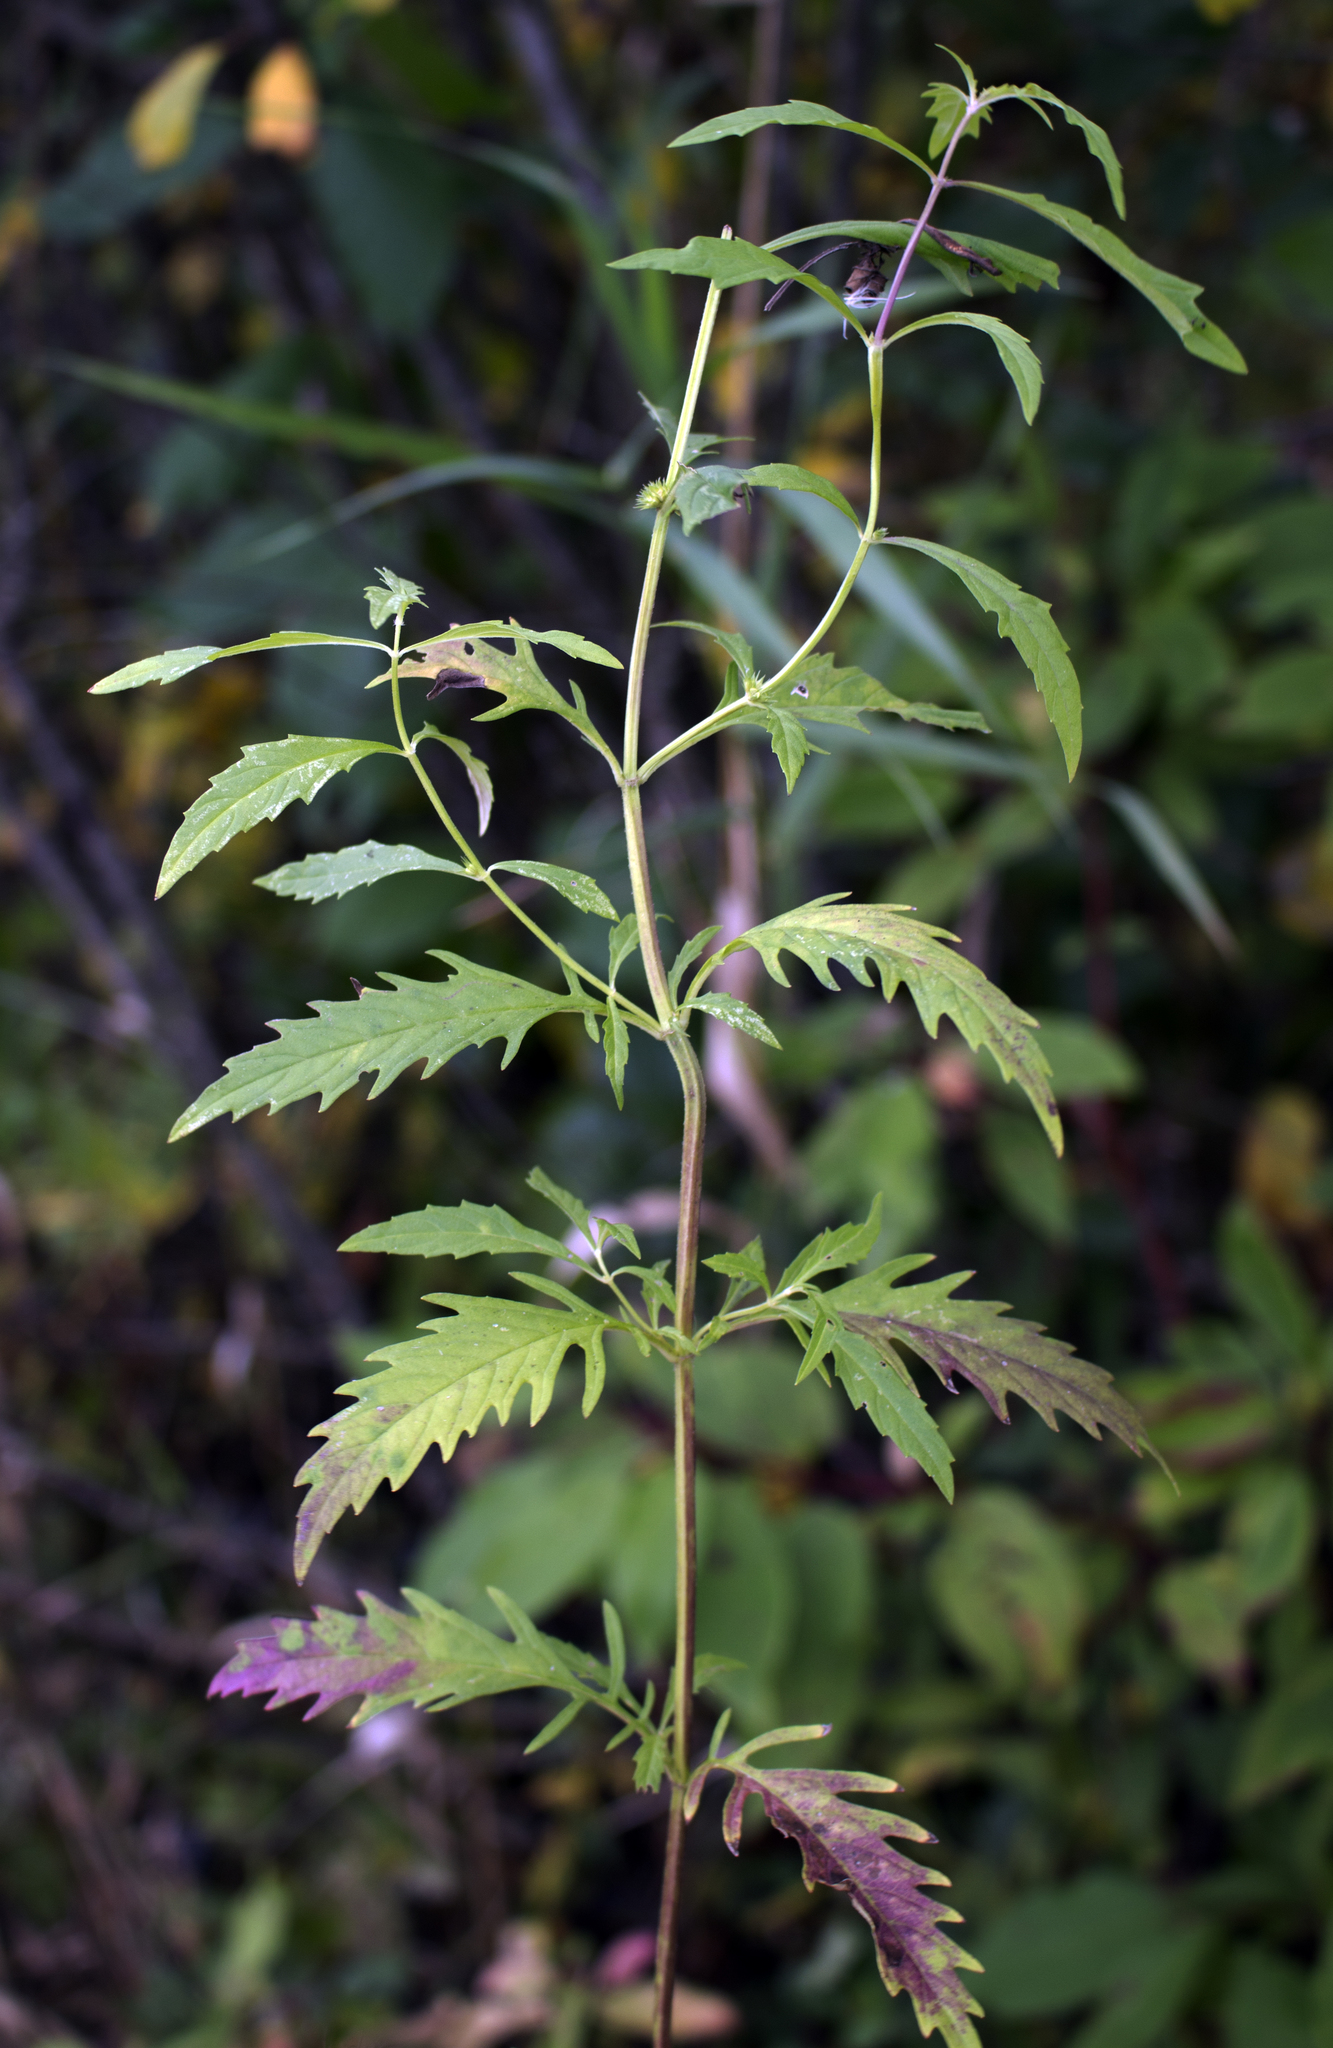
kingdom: Plantae
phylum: Tracheophyta
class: Magnoliopsida
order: Lamiales
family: Lamiaceae
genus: Lycopus
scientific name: Lycopus americanus
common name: American bugleweed
